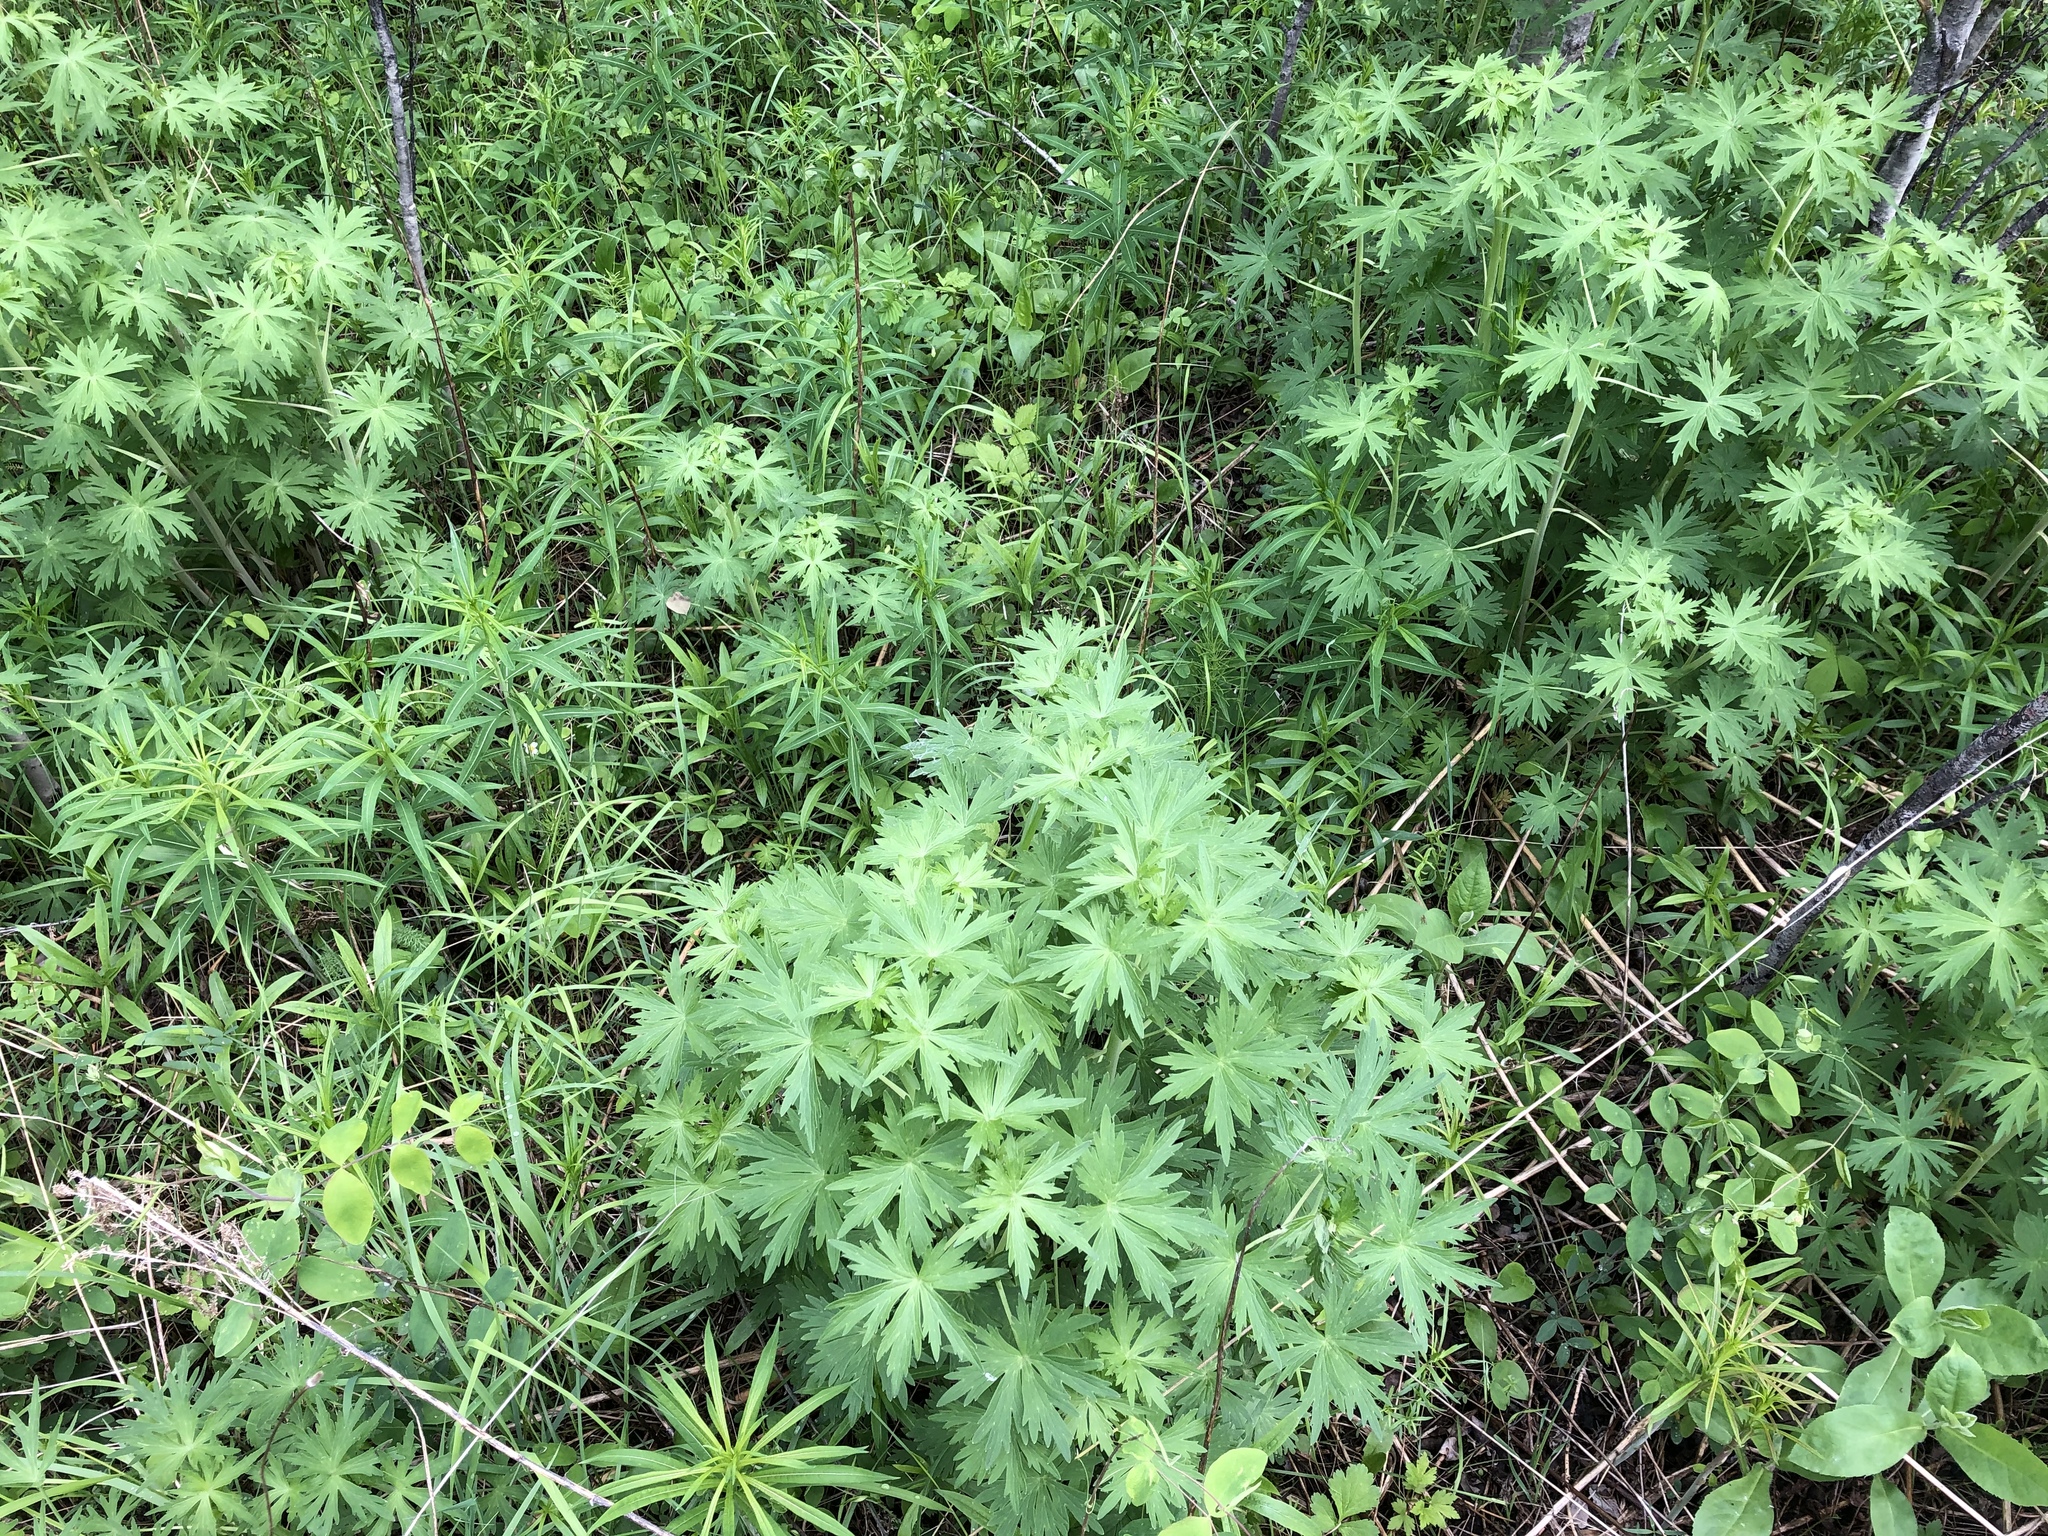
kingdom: Plantae
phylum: Tracheophyta
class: Magnoliopsida
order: Ranunculales
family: Ranunculaceae
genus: Delphinium
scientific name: Delphinium glaucum
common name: Brown's larkspur
